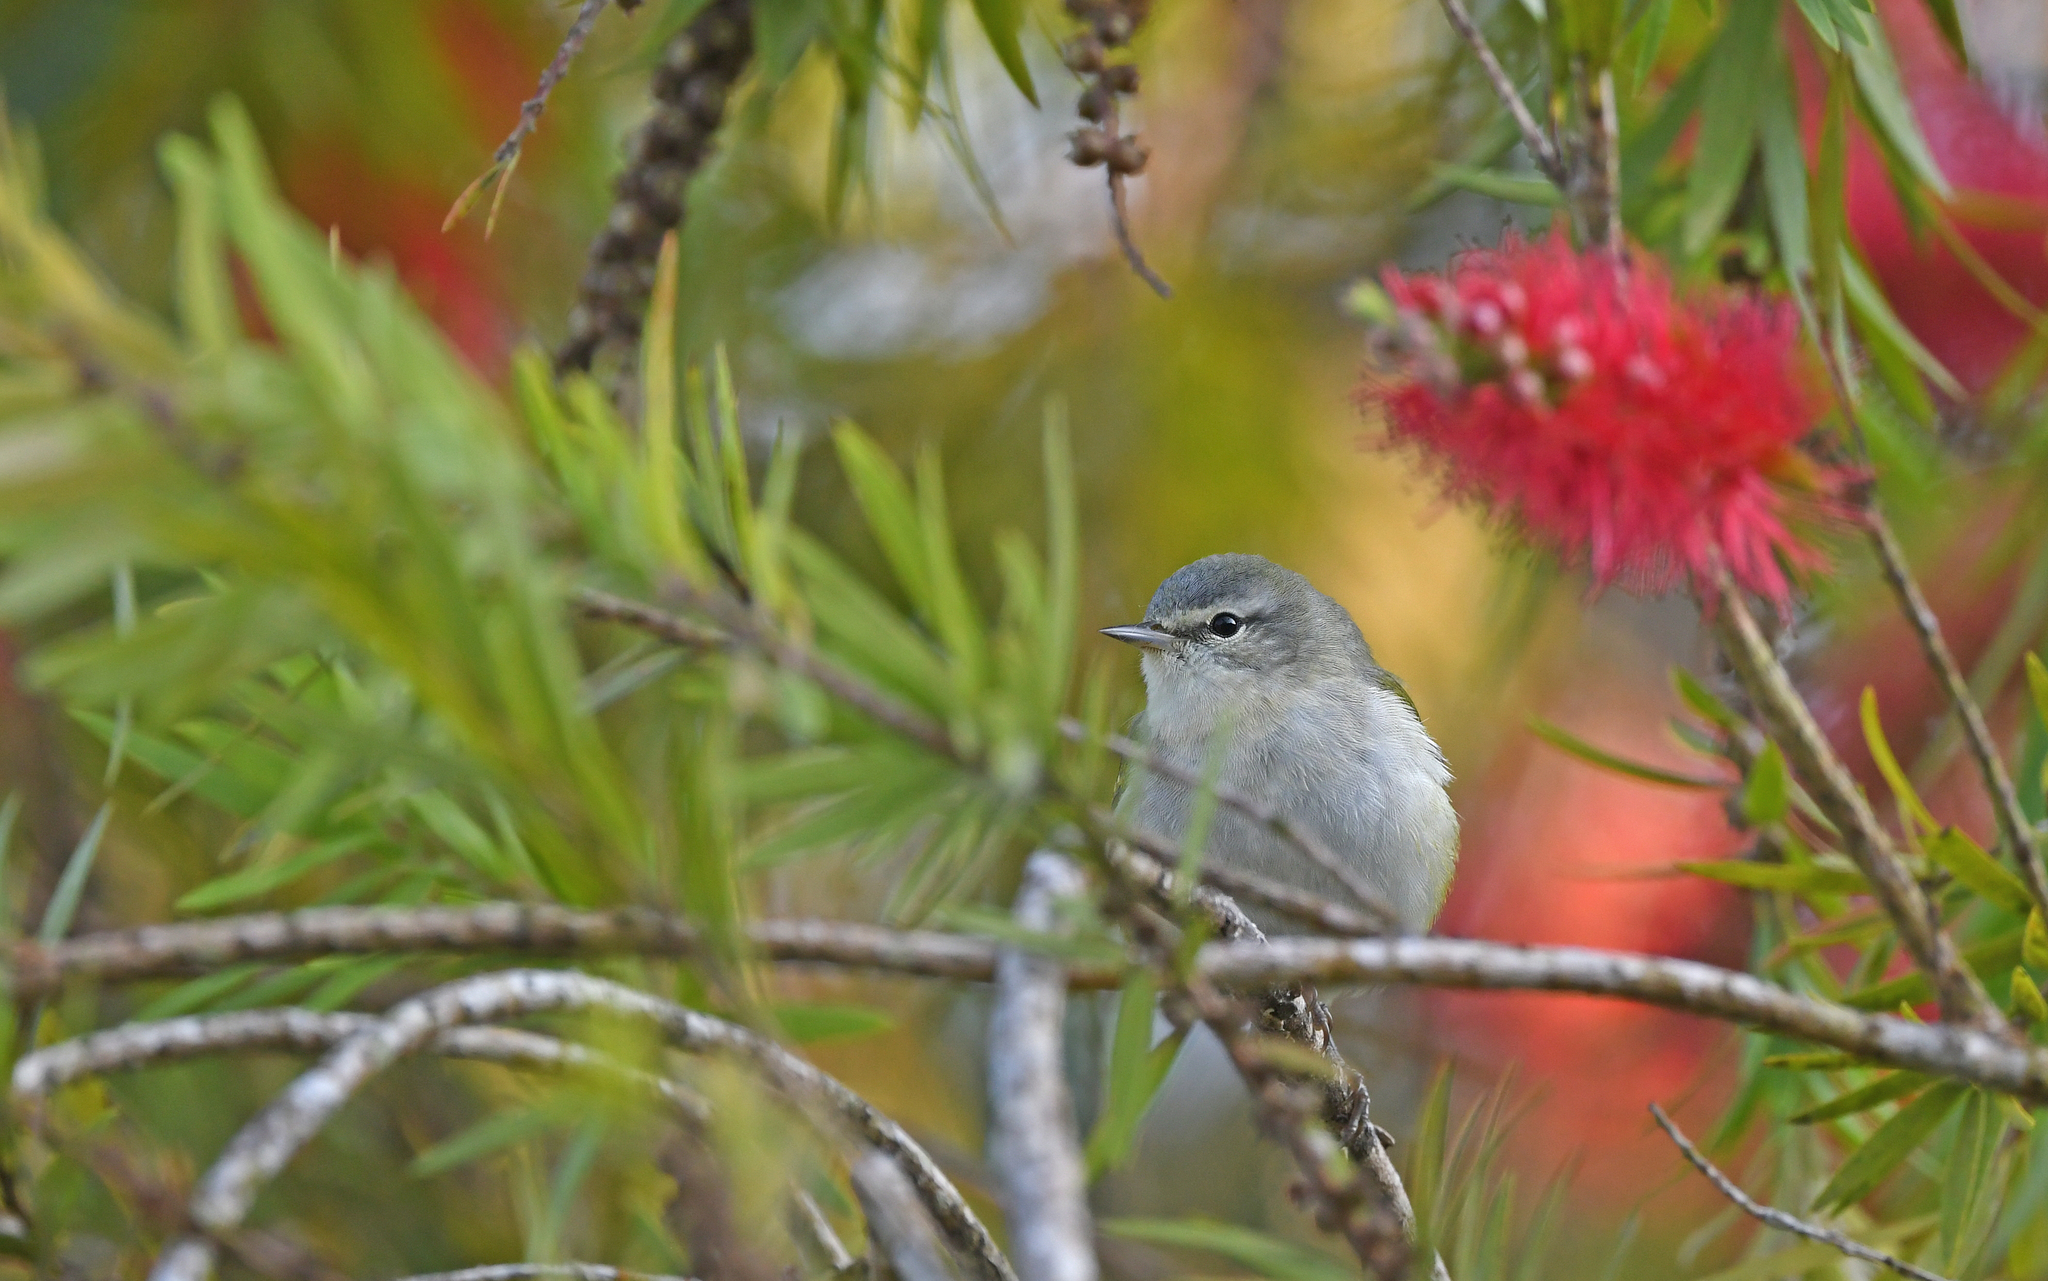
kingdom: Animalia
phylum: Chordata
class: Aves
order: Passeriformes
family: Parulidae
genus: Leiothlypis
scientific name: Leiothlypis peregrina
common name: Tennessee warbler
